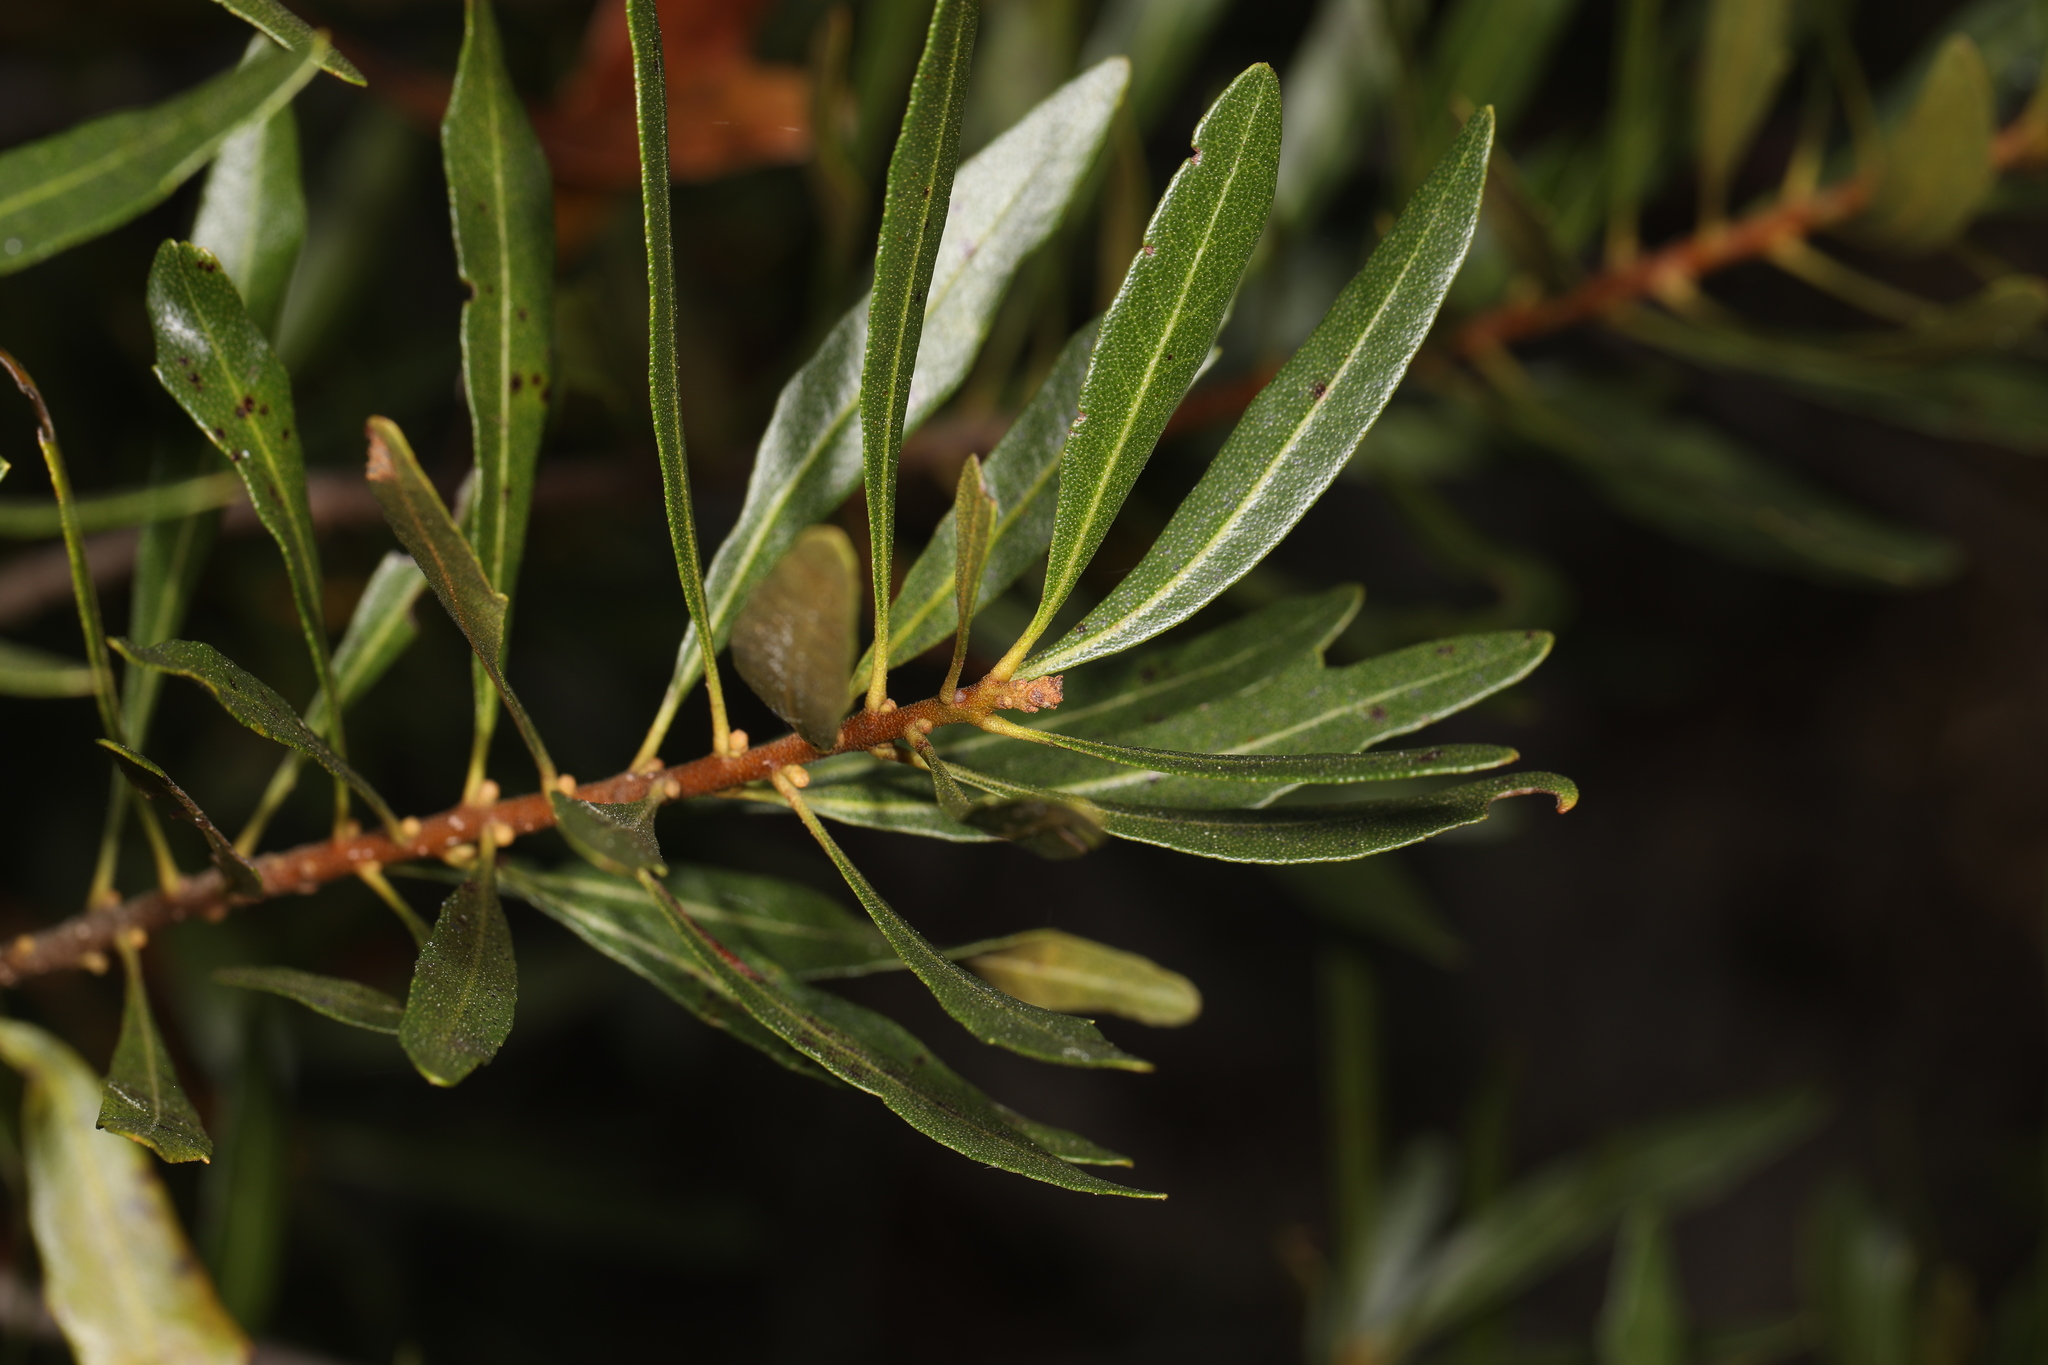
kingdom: Plantae
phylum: Tracheophyta
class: Magnoliopsida
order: Fagales
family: Myricaceae
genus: Morella
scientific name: Morella cerifera
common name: Wax myrtle
